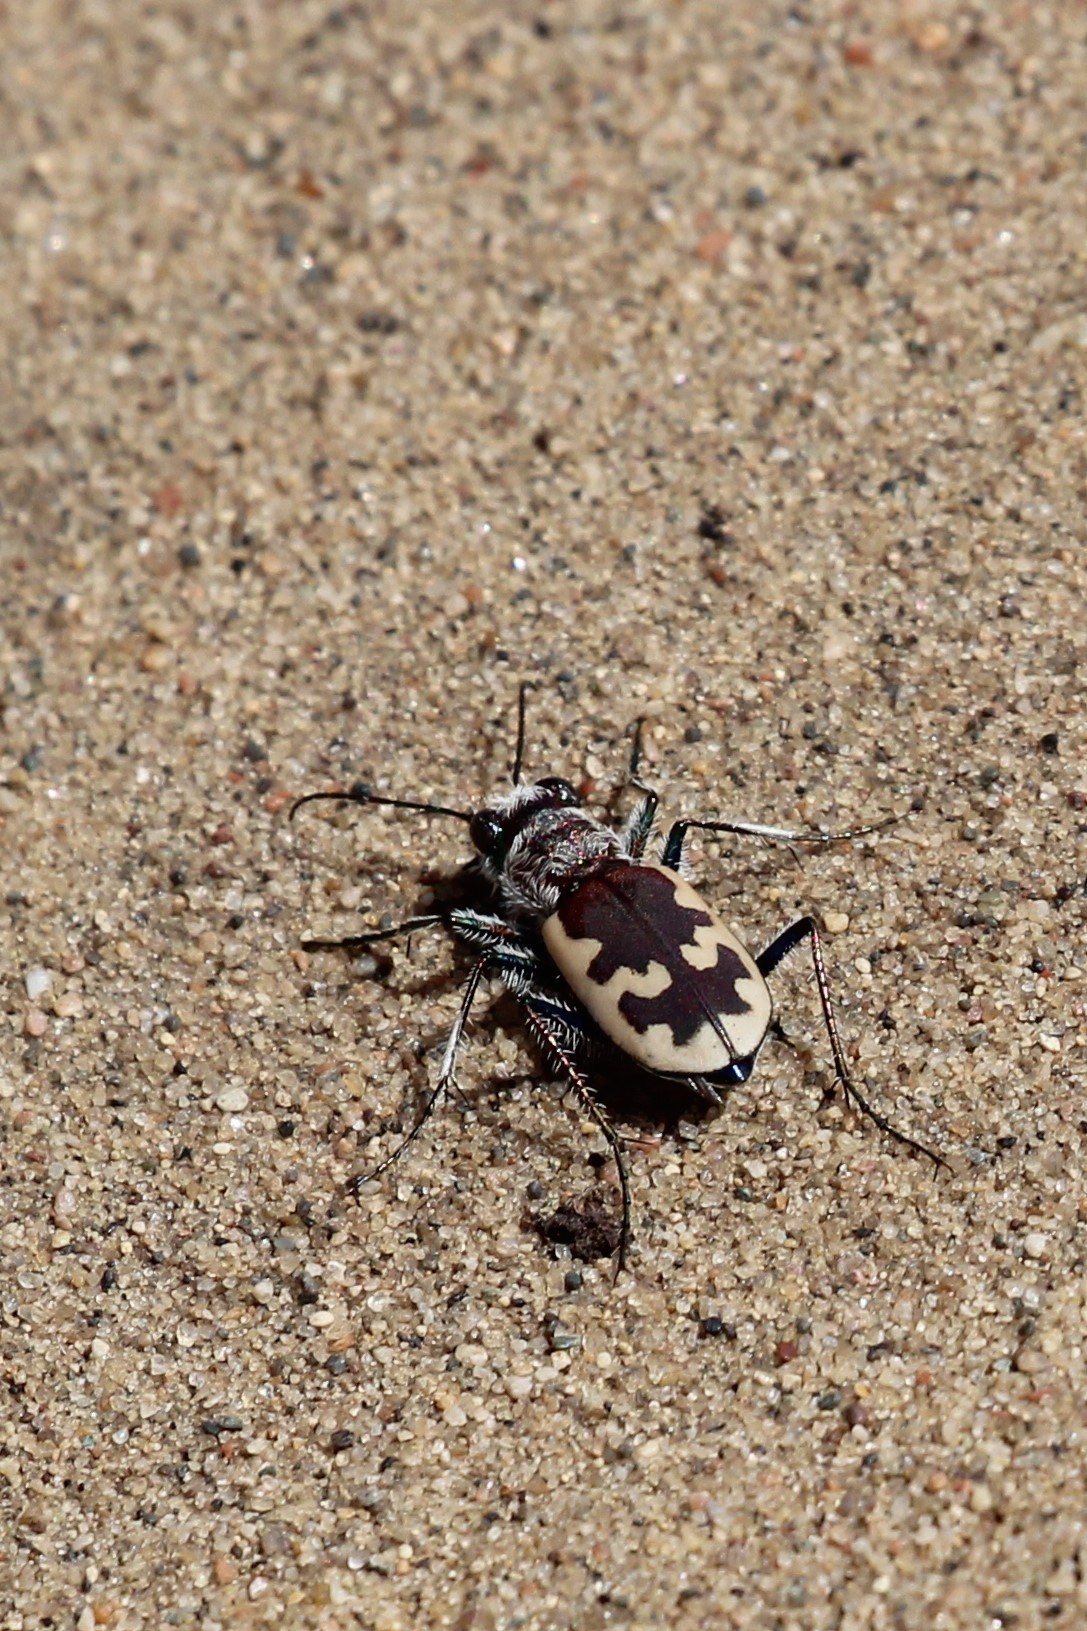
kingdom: Animalia
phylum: Arthropoda
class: Insecta
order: Coleoptera
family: Carabidae
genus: Cicindela
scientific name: Cicindela formosa
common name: Big sand tiger beetle
